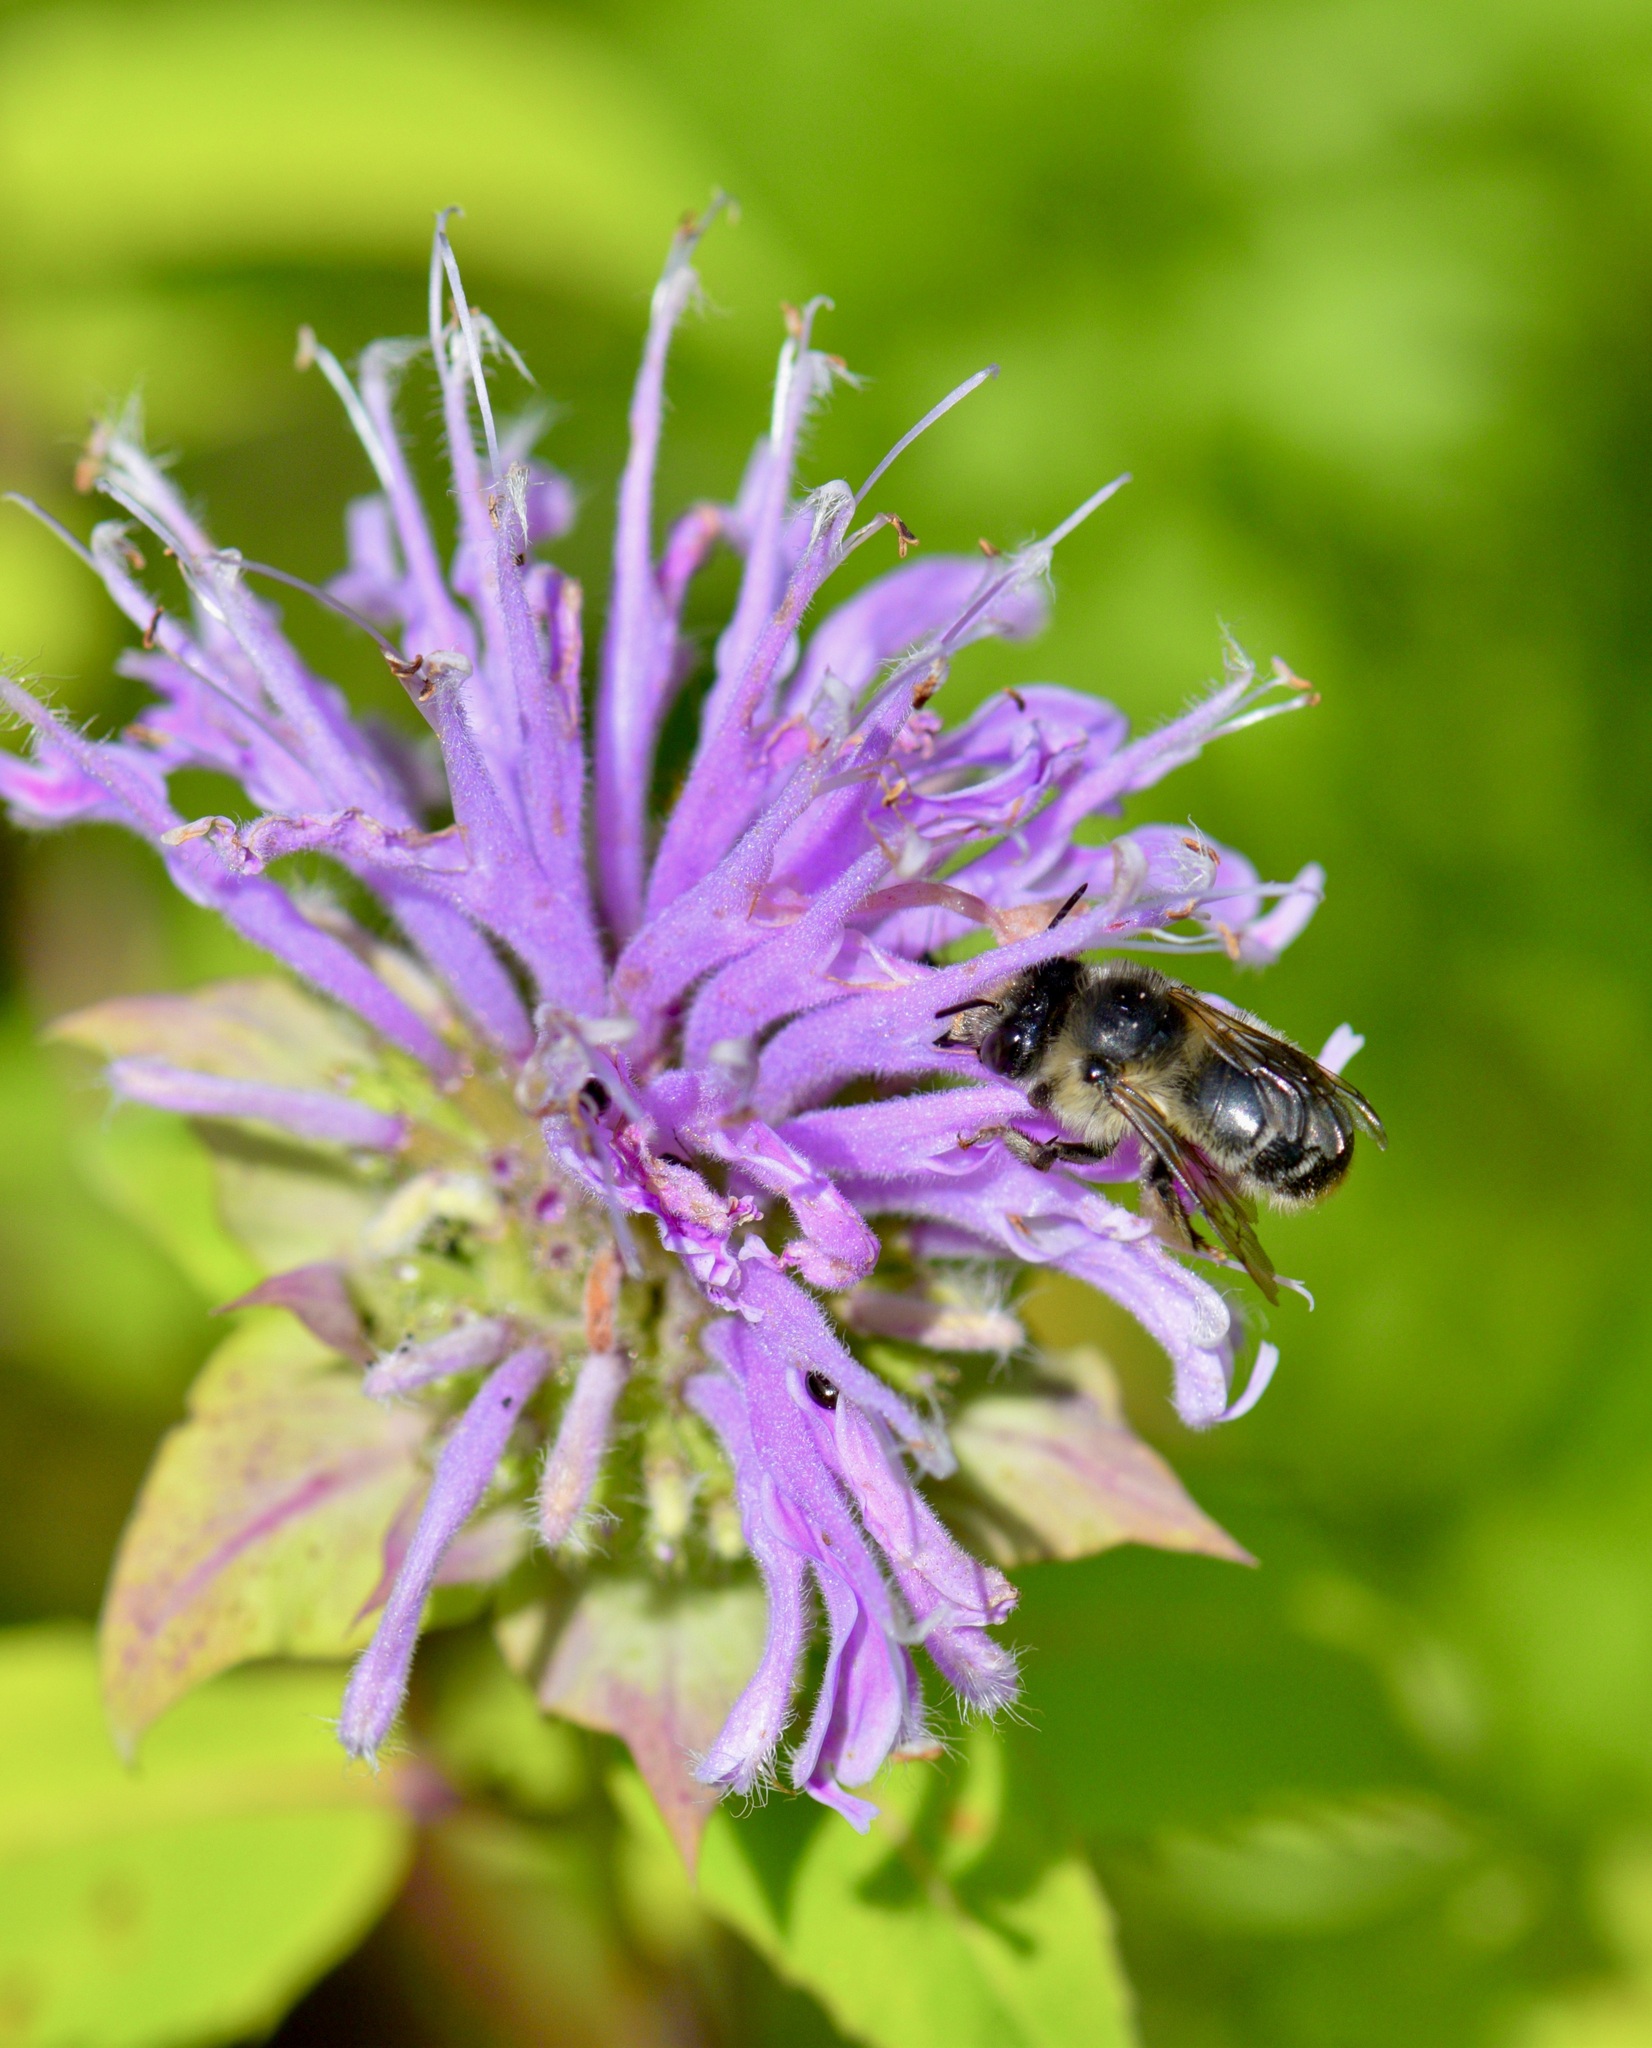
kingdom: Animalia
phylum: Arthropoda
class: Insecta
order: Hymenoptera
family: Apidae
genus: Anthophora
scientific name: Anthophora terminalis
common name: Orange-tipped wood-digger bee
